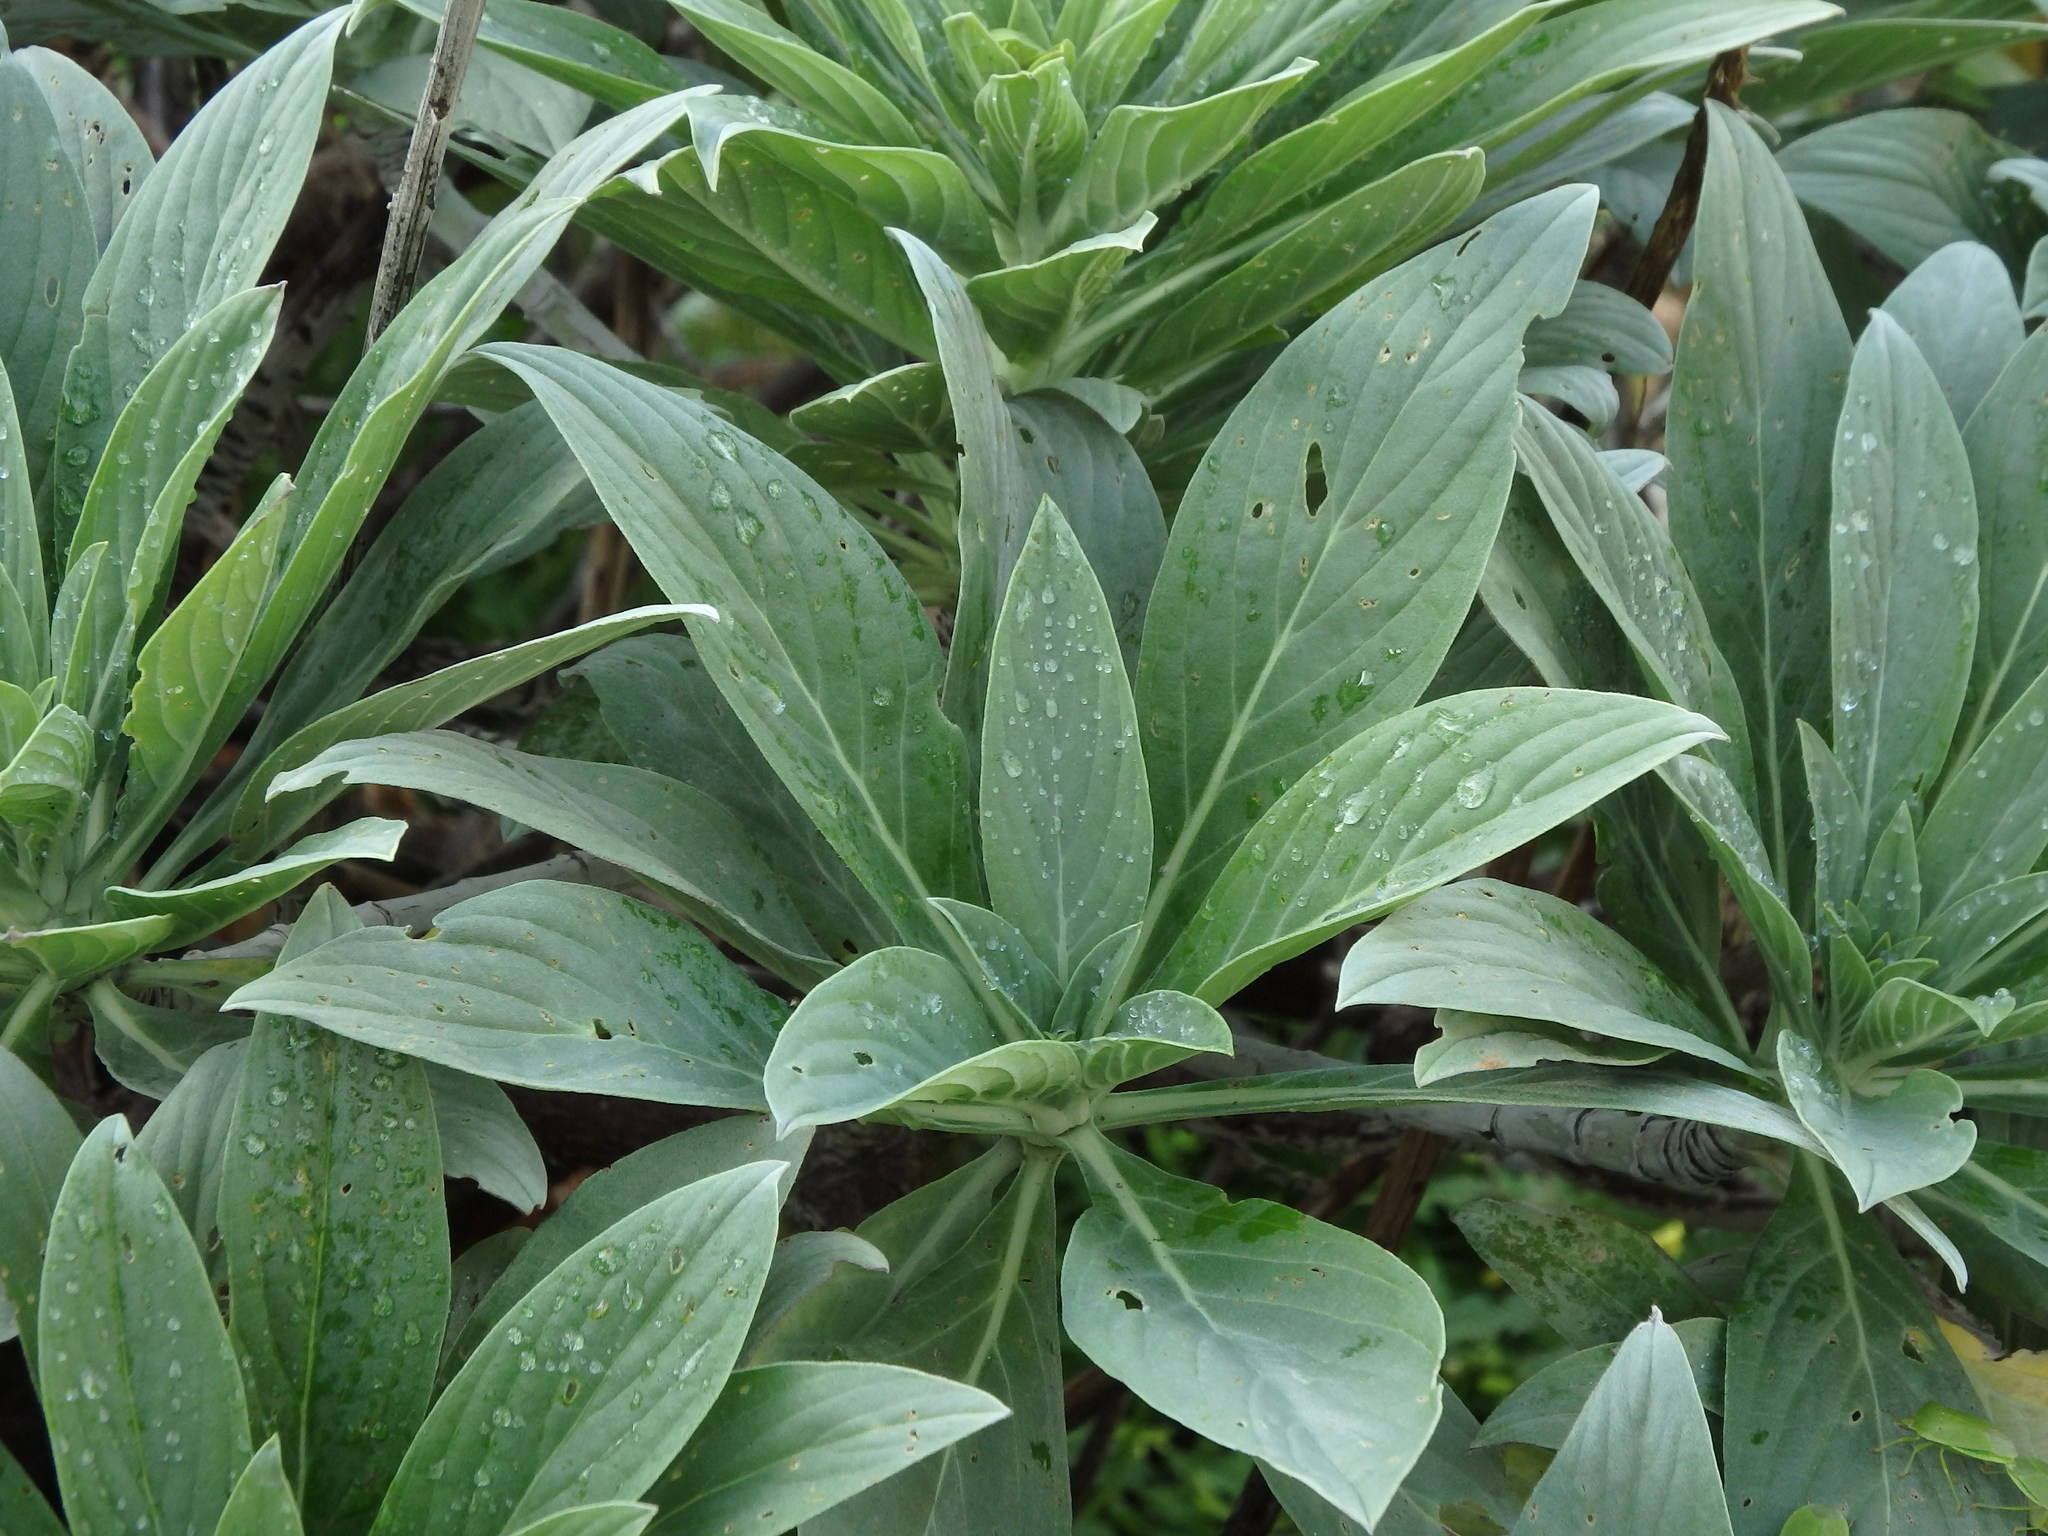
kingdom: Plantae
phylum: Tracheophyta
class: Magnoliopsida
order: Boraginales
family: Boraginaceae
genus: Echium
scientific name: Echium portosanctense
